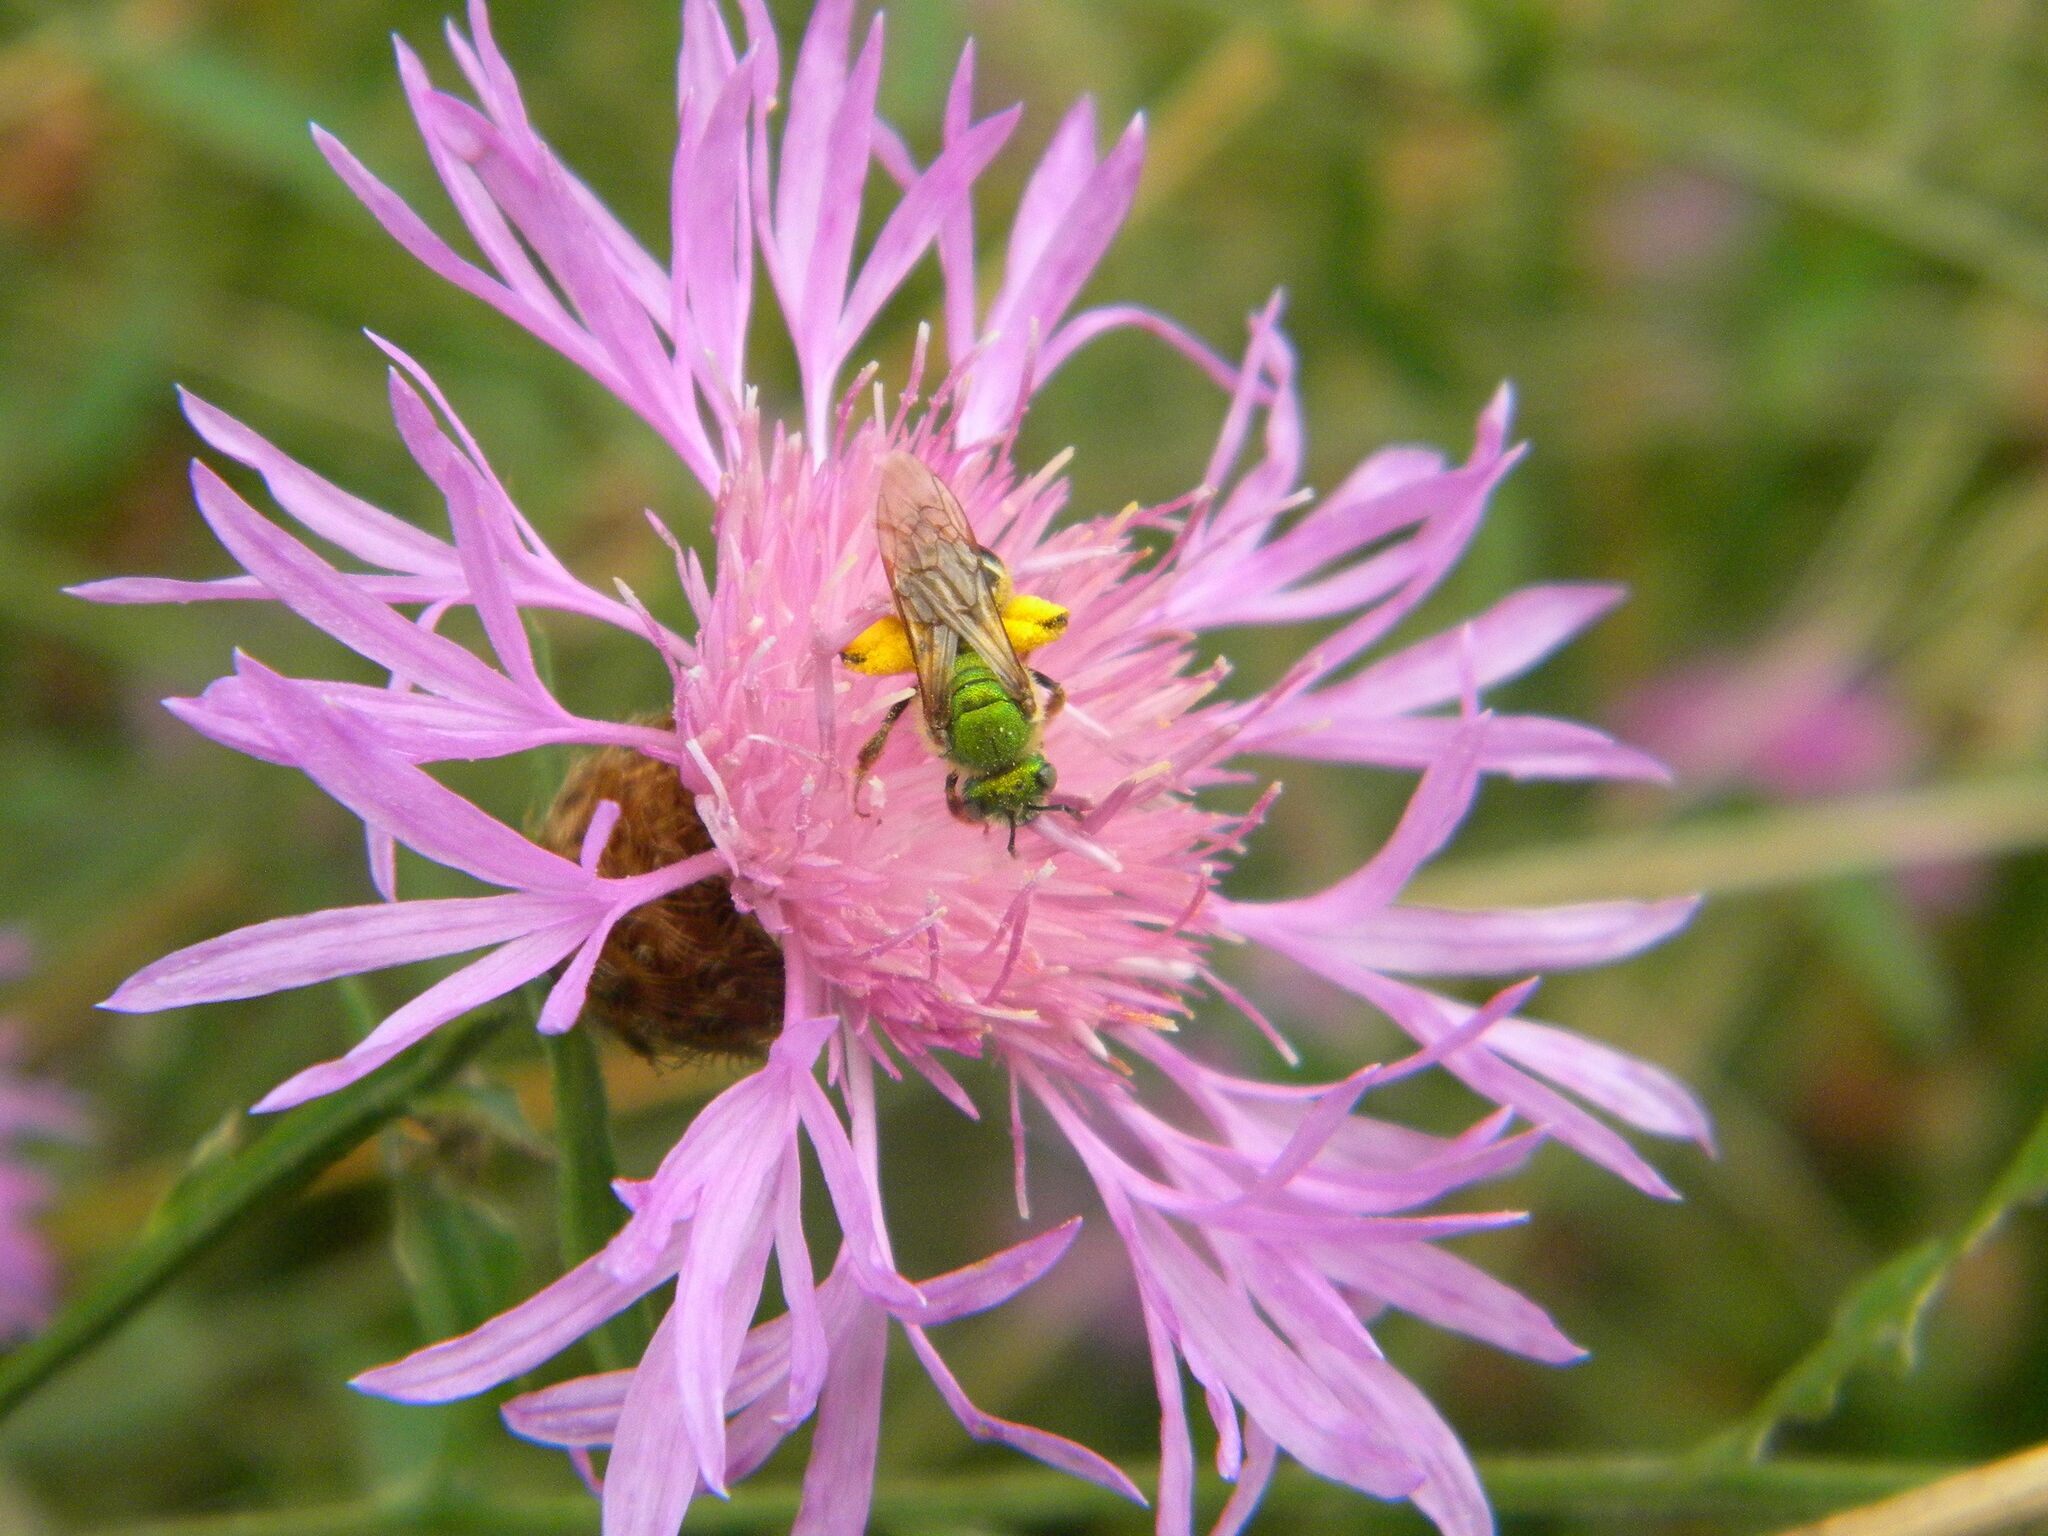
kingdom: Animalia
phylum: Arthropoda
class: Insecta
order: Hymenoptera
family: Halictidae
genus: Agapostemon
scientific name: Agapostemon virescens
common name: Bicolored striped sweat bee
